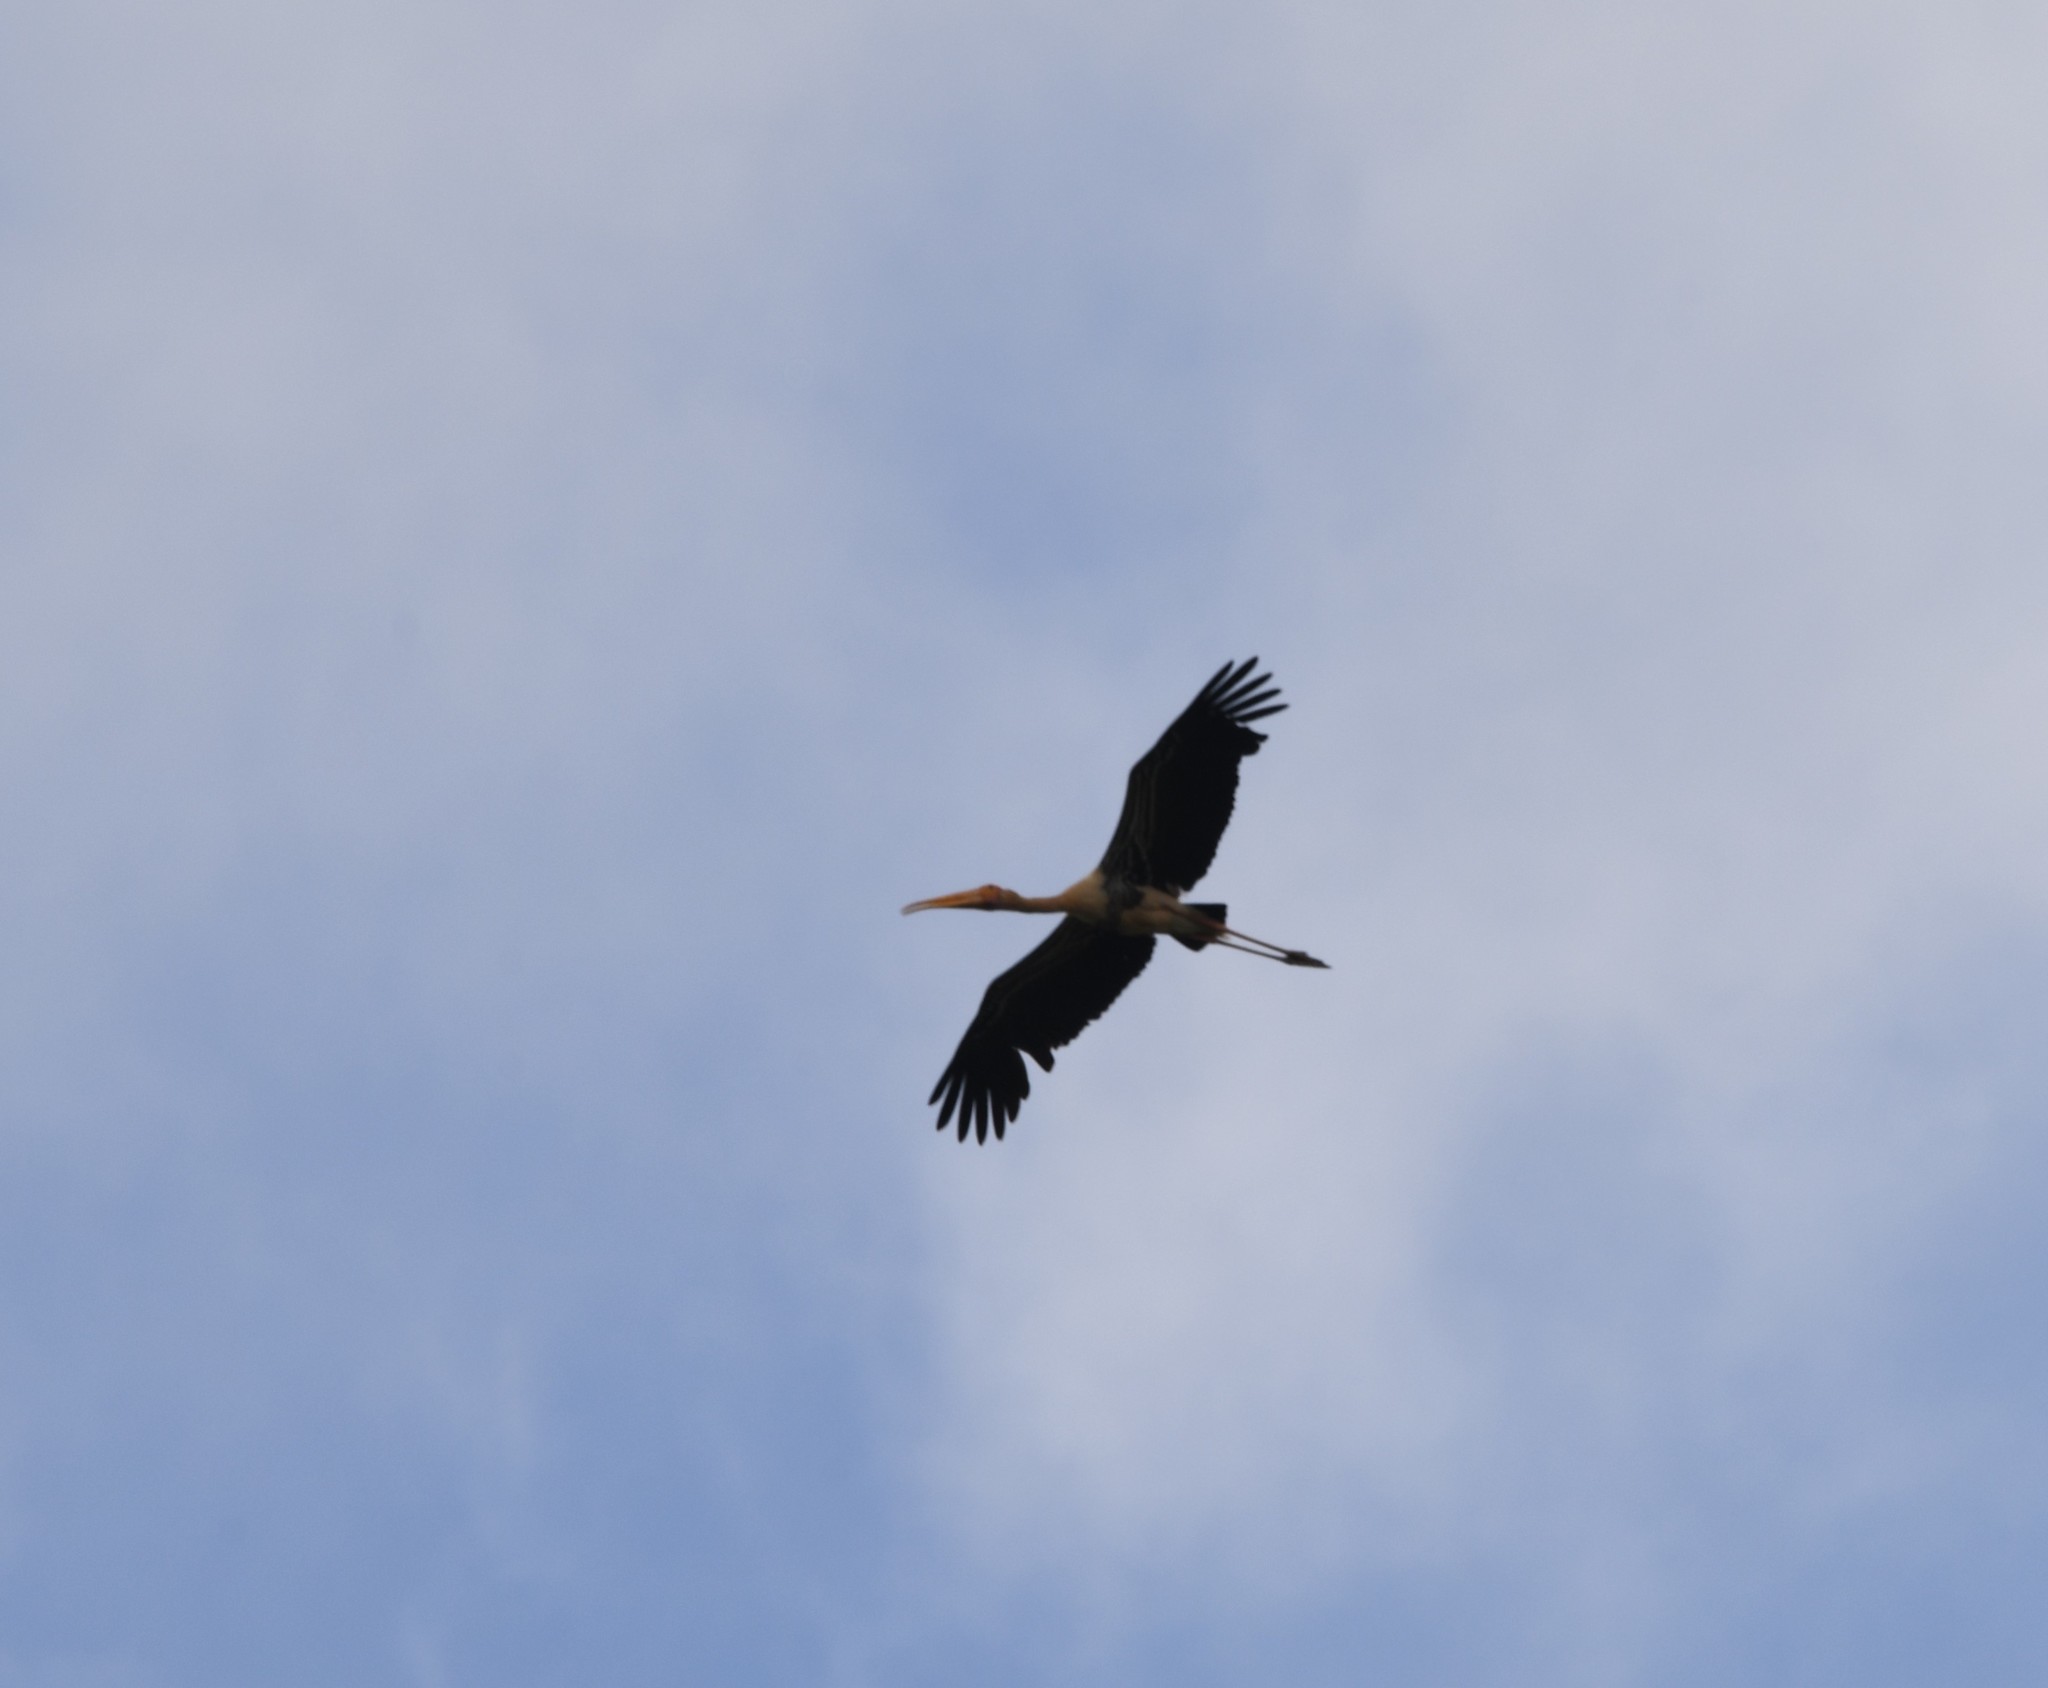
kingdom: Animalia
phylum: Chordata
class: Aves
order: Ciconiiformes
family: Ciconiidae
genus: Mycteria
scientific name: Mycteria leucocephala
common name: Painted stork
